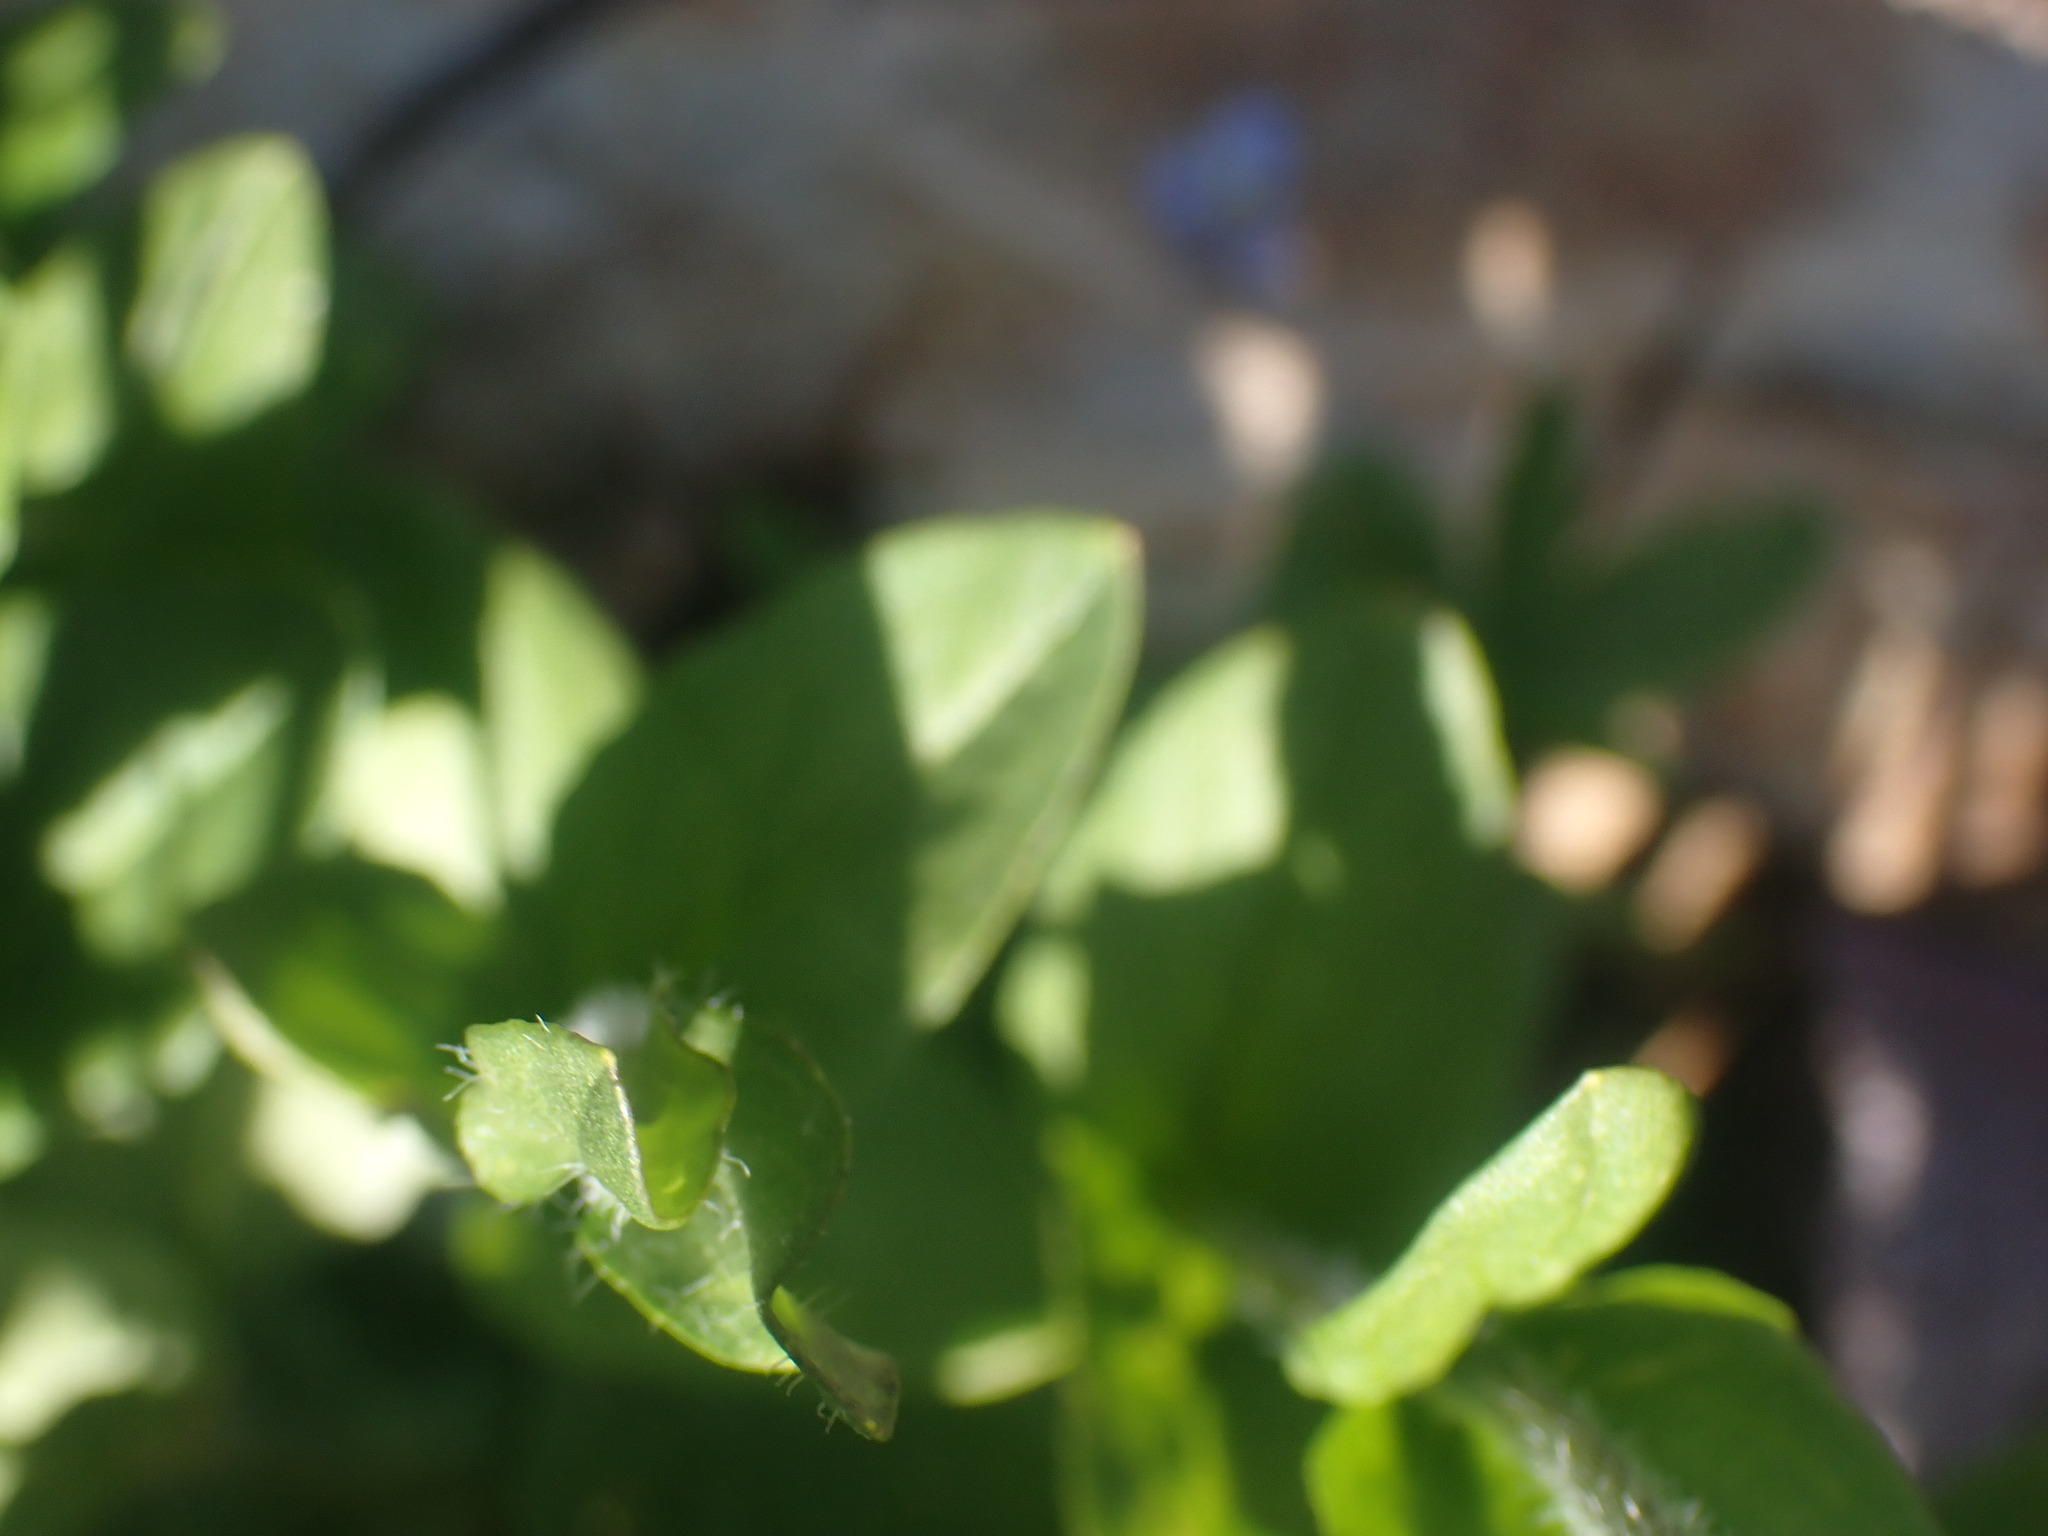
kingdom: Plantae
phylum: Tracheophyta
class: Magnoliopsida
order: Lamiales
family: Plantaginaceae
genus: Veronica
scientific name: Veronica wormskjoldii
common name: American alpine speedwell
